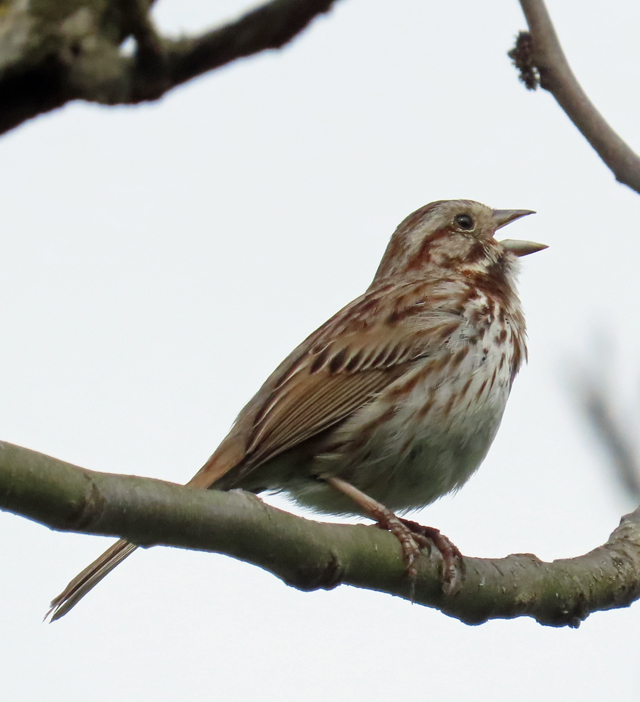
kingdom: Animalia
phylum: Chordata
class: Aves
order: Passeriformes
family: Passerellidae
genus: Melospiza
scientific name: Melospiza melodia
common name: Song sparrow
